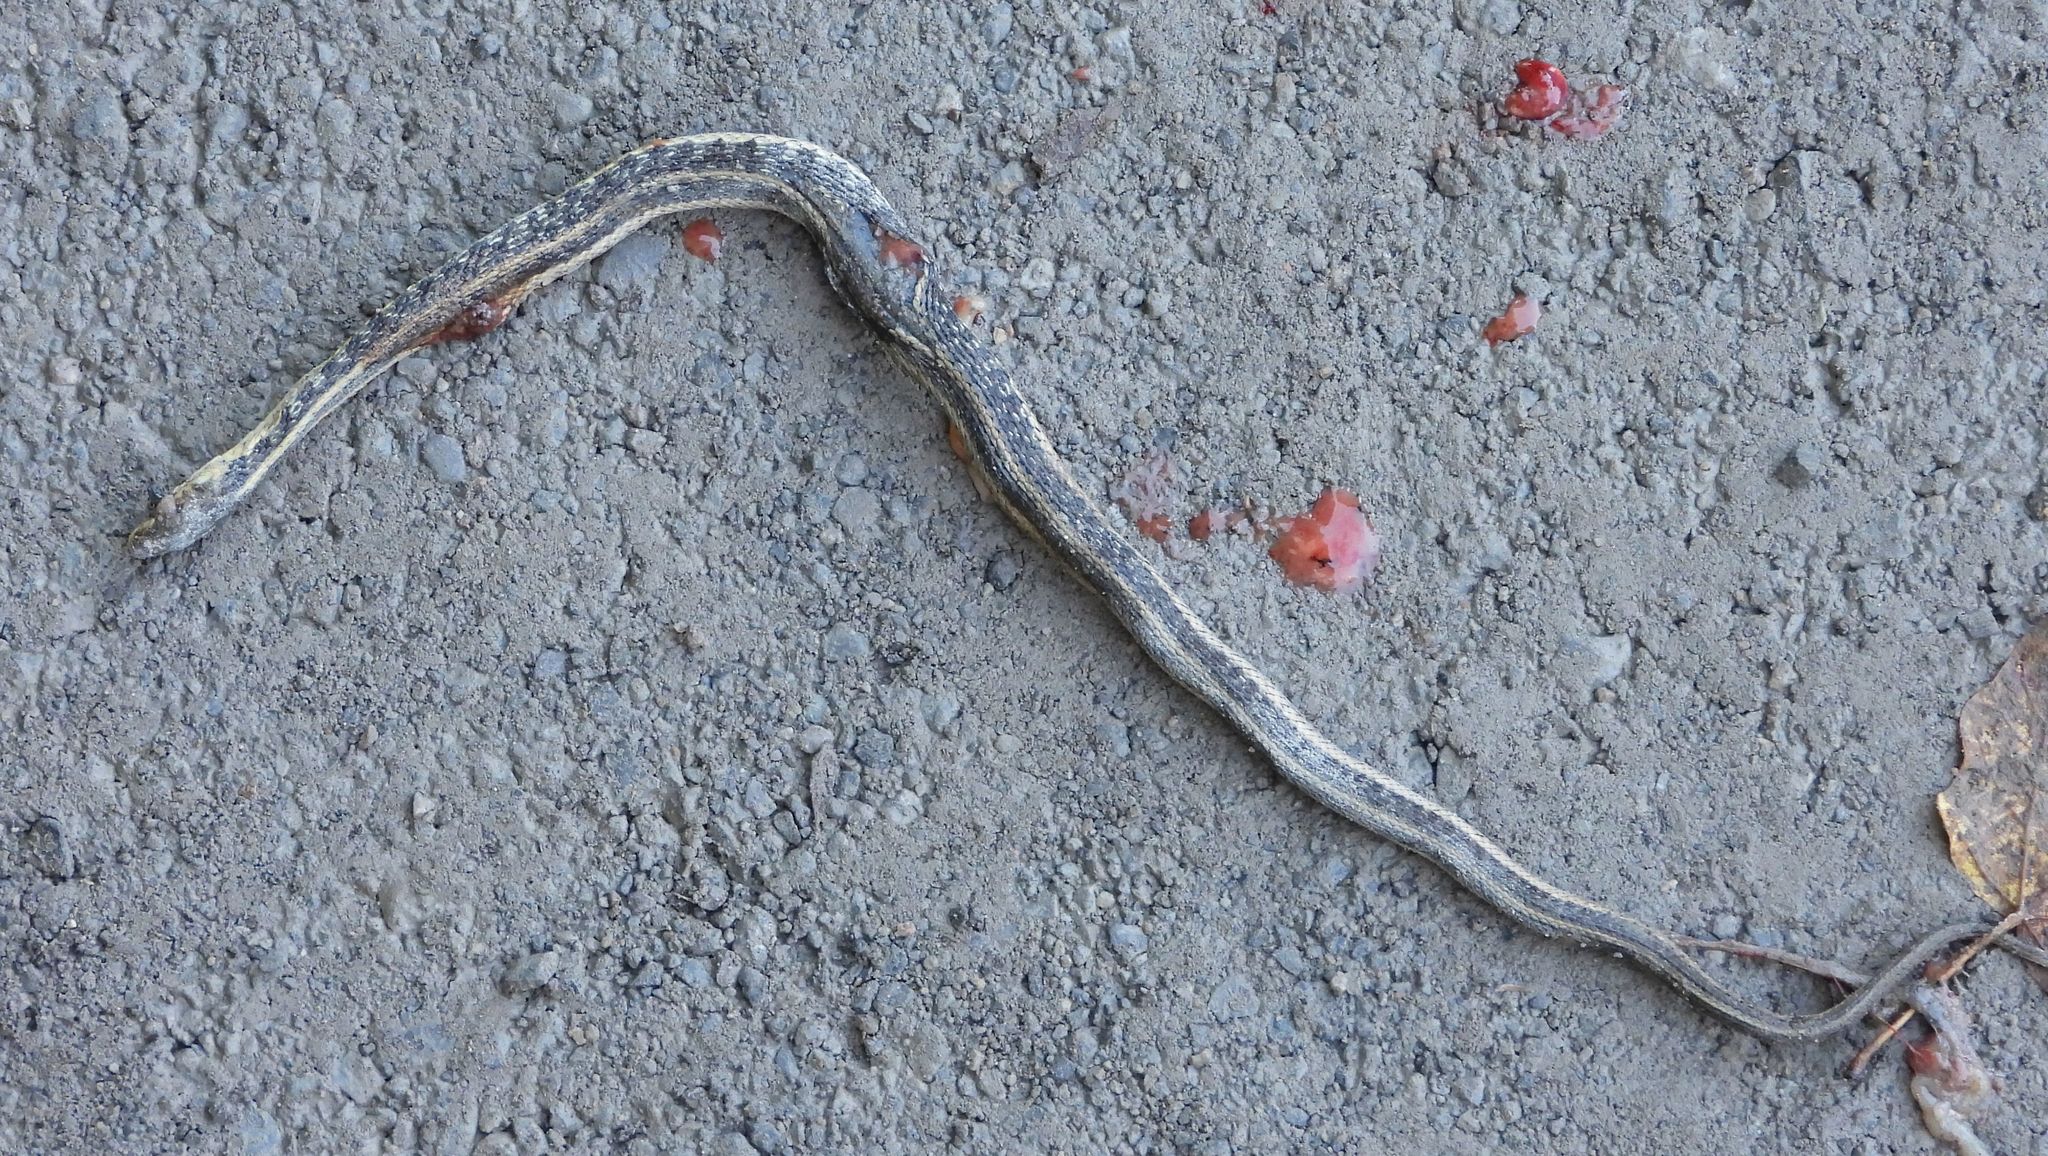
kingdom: Animalia
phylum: Chordata
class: Squamata
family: Colubridae
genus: Thamnophis
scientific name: Thamnophis sirtalis
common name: Common garter snake
